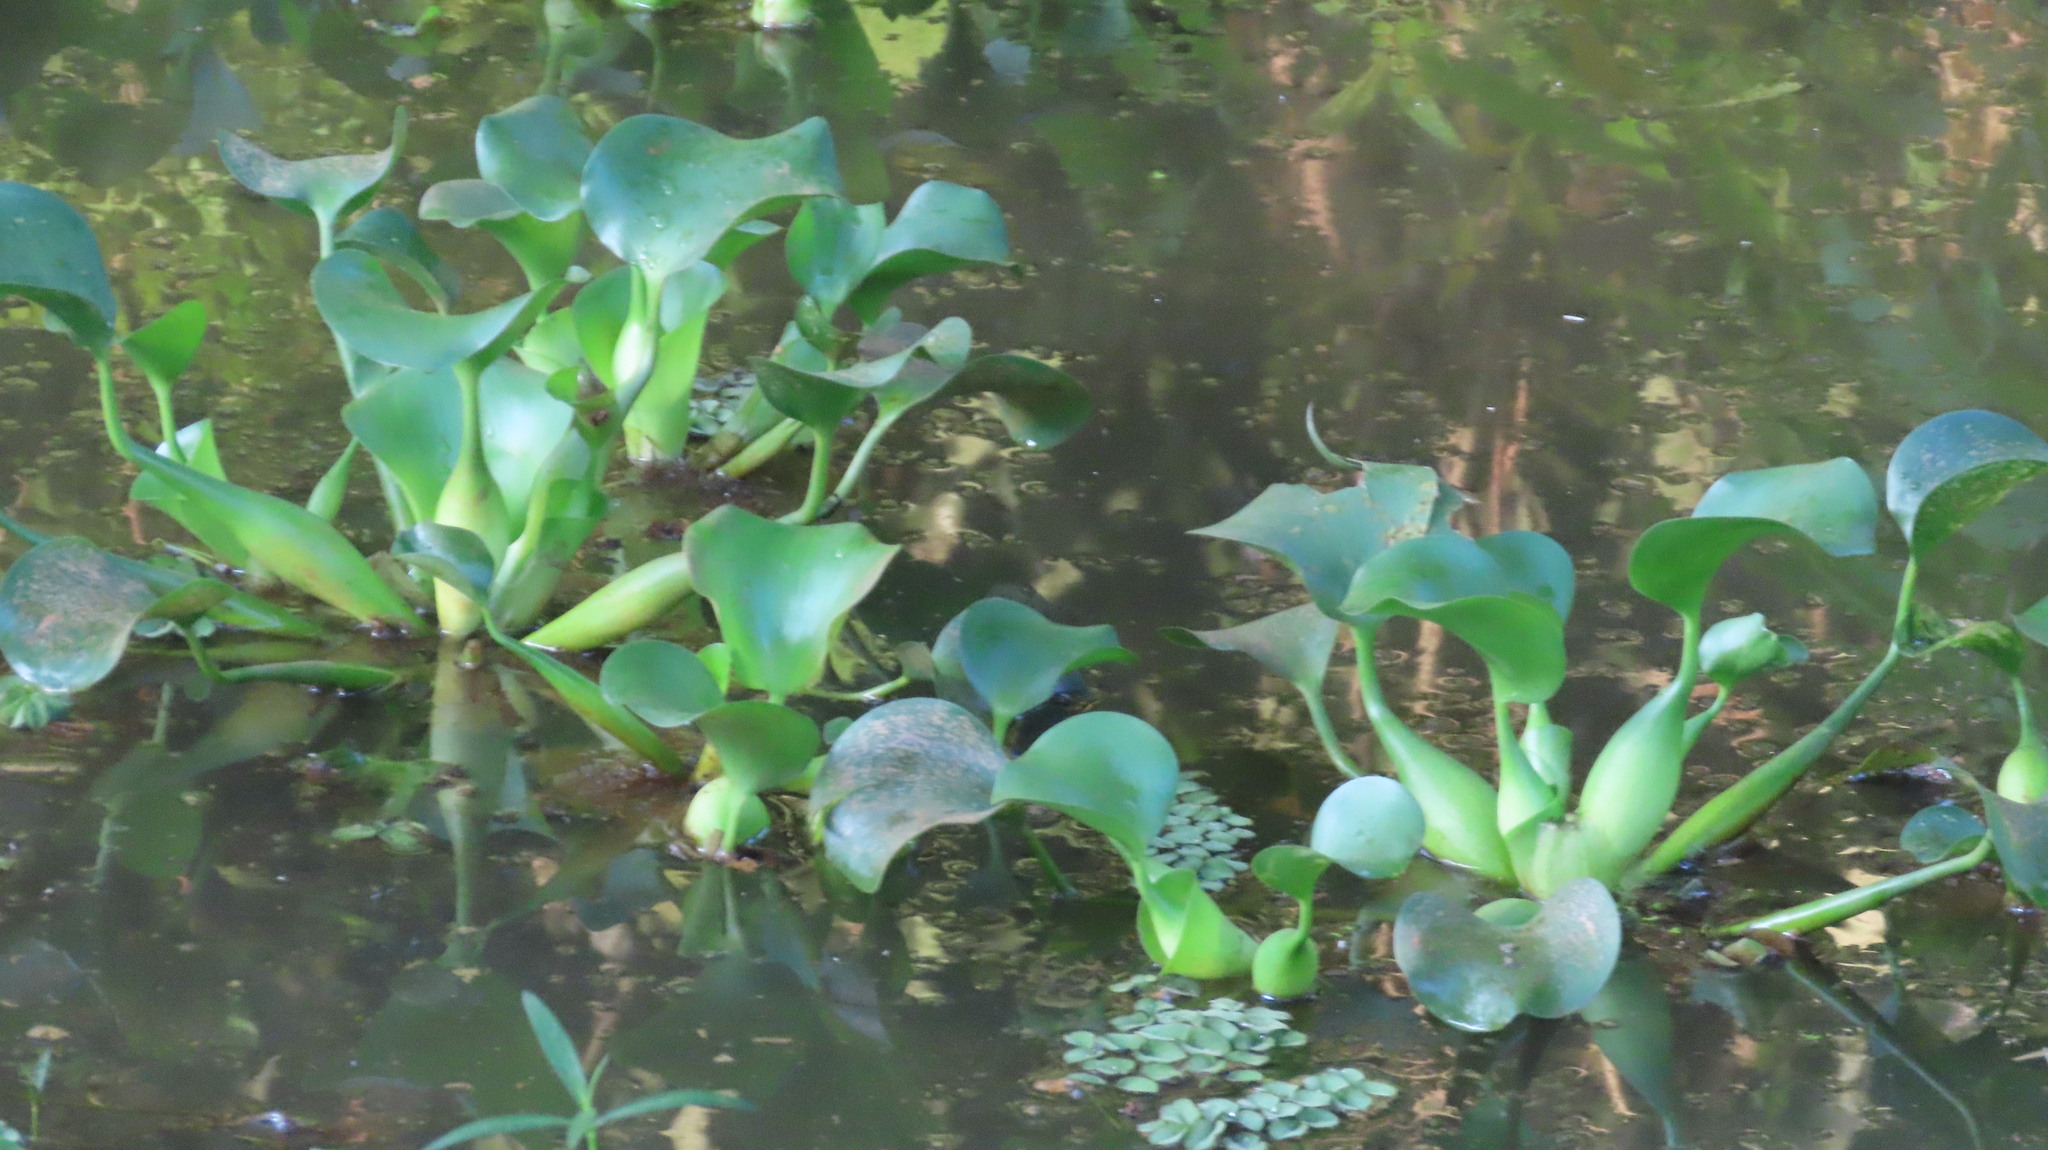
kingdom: Plantae
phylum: Tracheophyta
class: Liliopsida
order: Commelinales
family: Pontederiaceae
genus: Pontederia
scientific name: Pontederia crassipes
